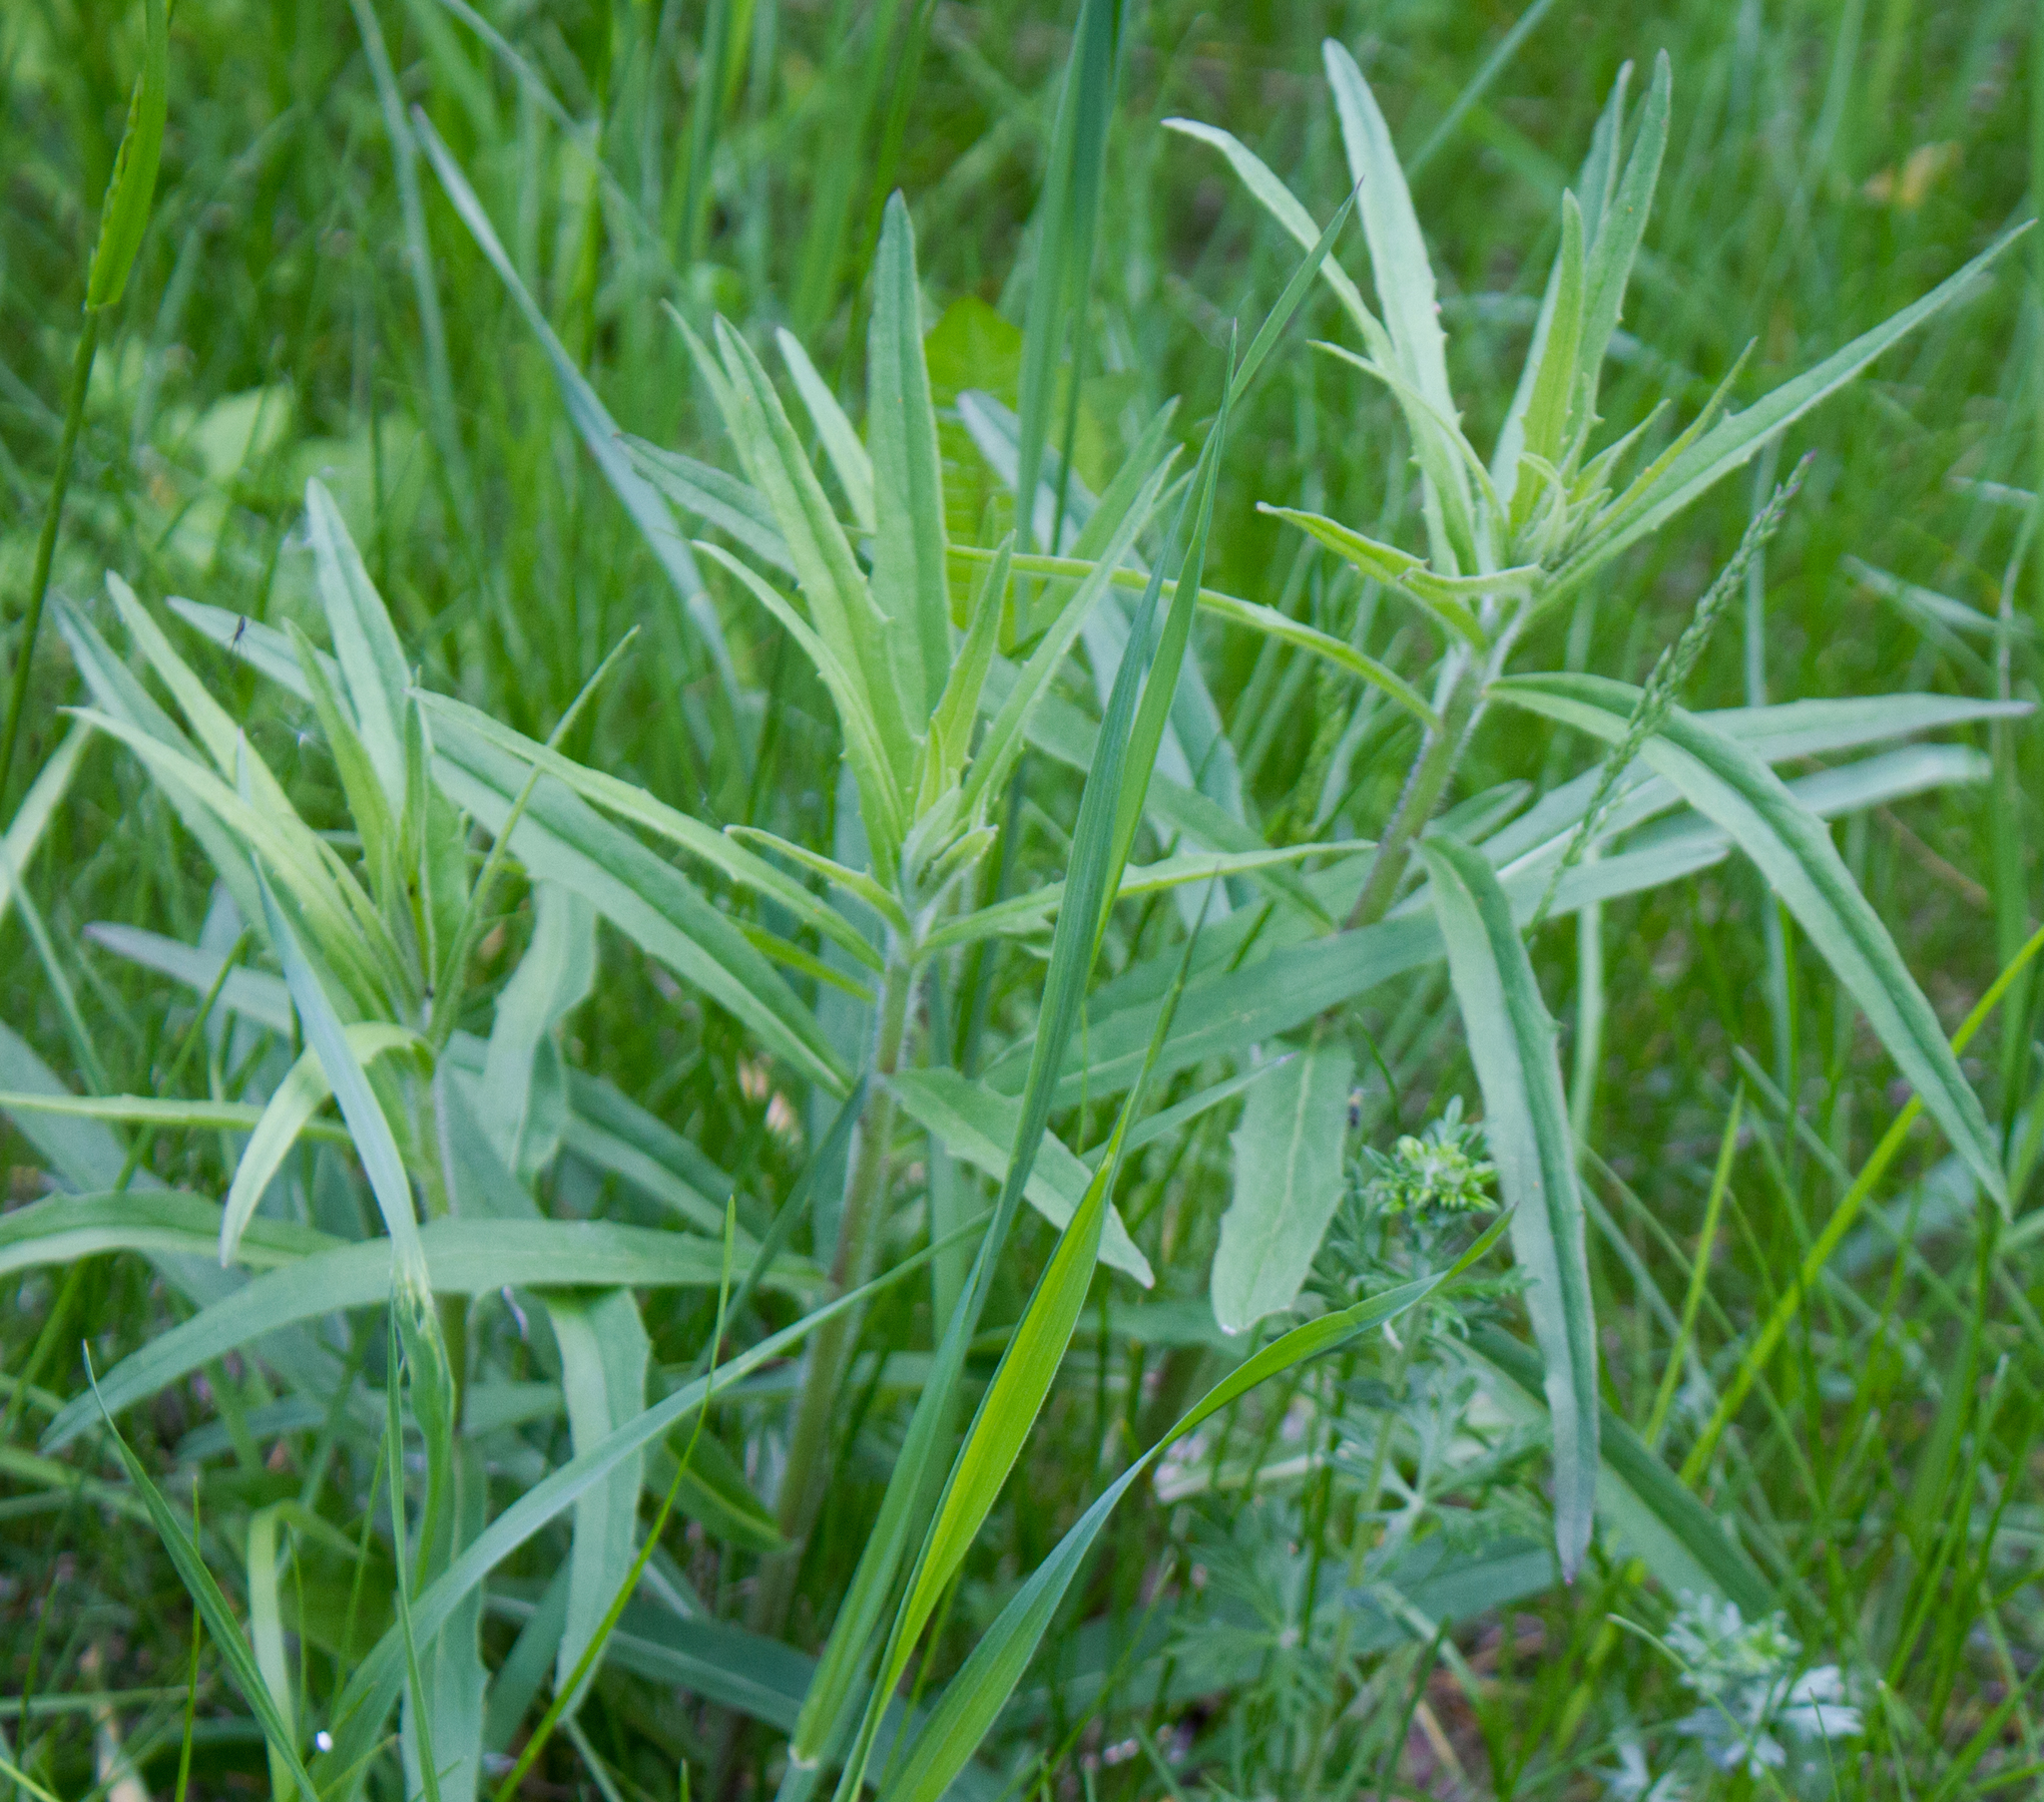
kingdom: Plantae
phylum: Tracheophyta
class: Magnoliopsida
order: Asterales
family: Asteraceae
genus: Hieracium
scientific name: Hieracium umbellatum
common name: Northern hawkweed
